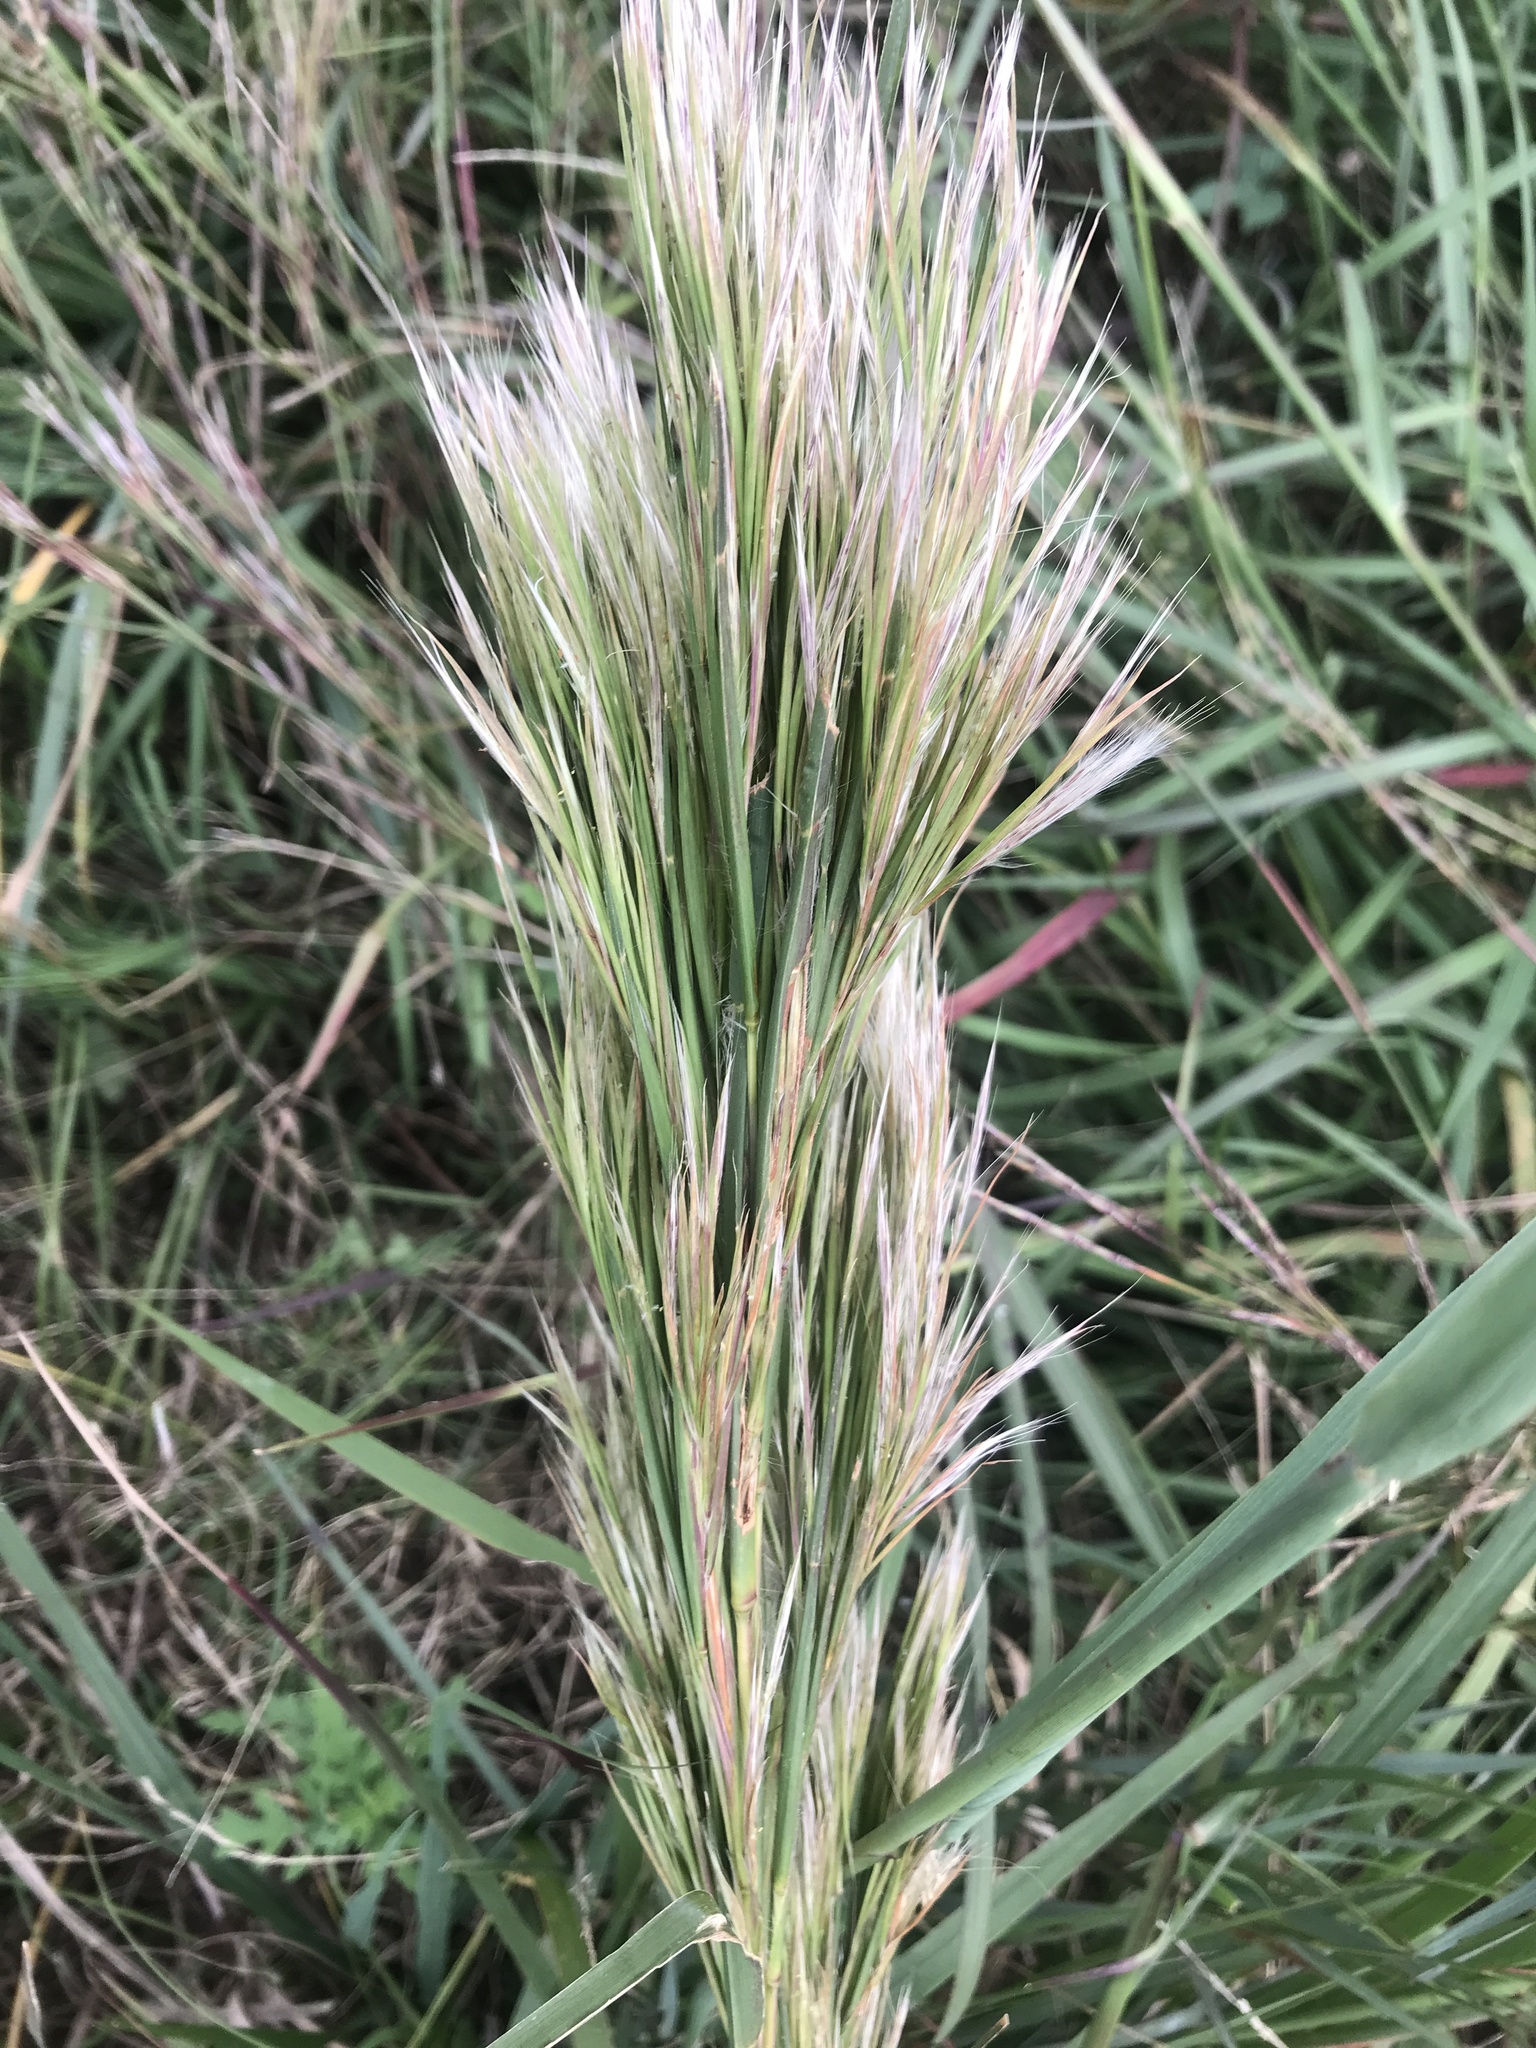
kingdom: Plantae
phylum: Tracheophyta
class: Liliopsida
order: Poales
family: Poaceae
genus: Andropogon
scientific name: Andropogon tenuispatheus
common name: Bushy bluestem
